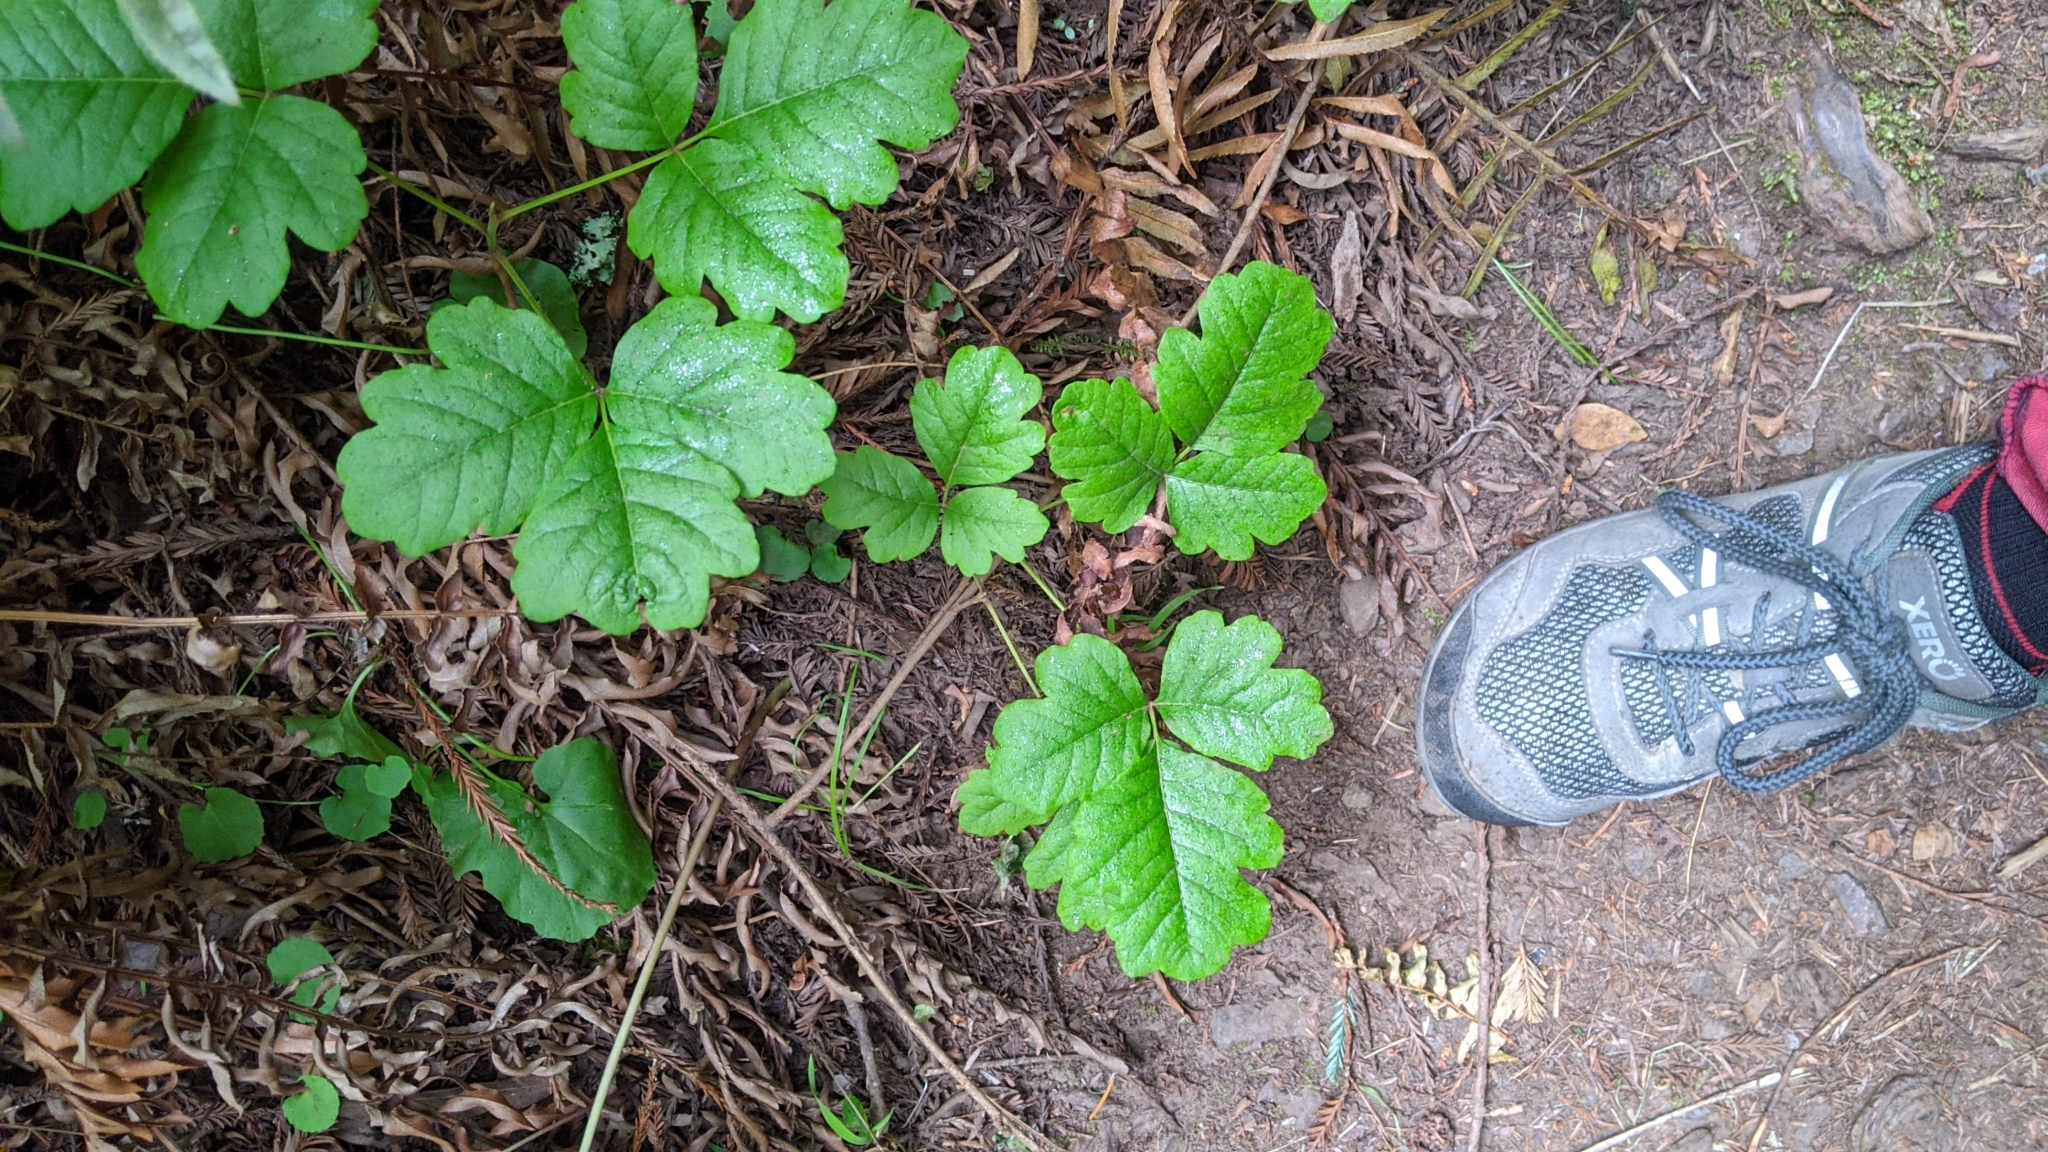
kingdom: Plantae
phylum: Tracheophyta
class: Magnoliopsida
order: Sapindales
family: Anacardiaceae
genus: Toxicodendron
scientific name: Toxicodendron diversilobum
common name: Pacific poison-oak
